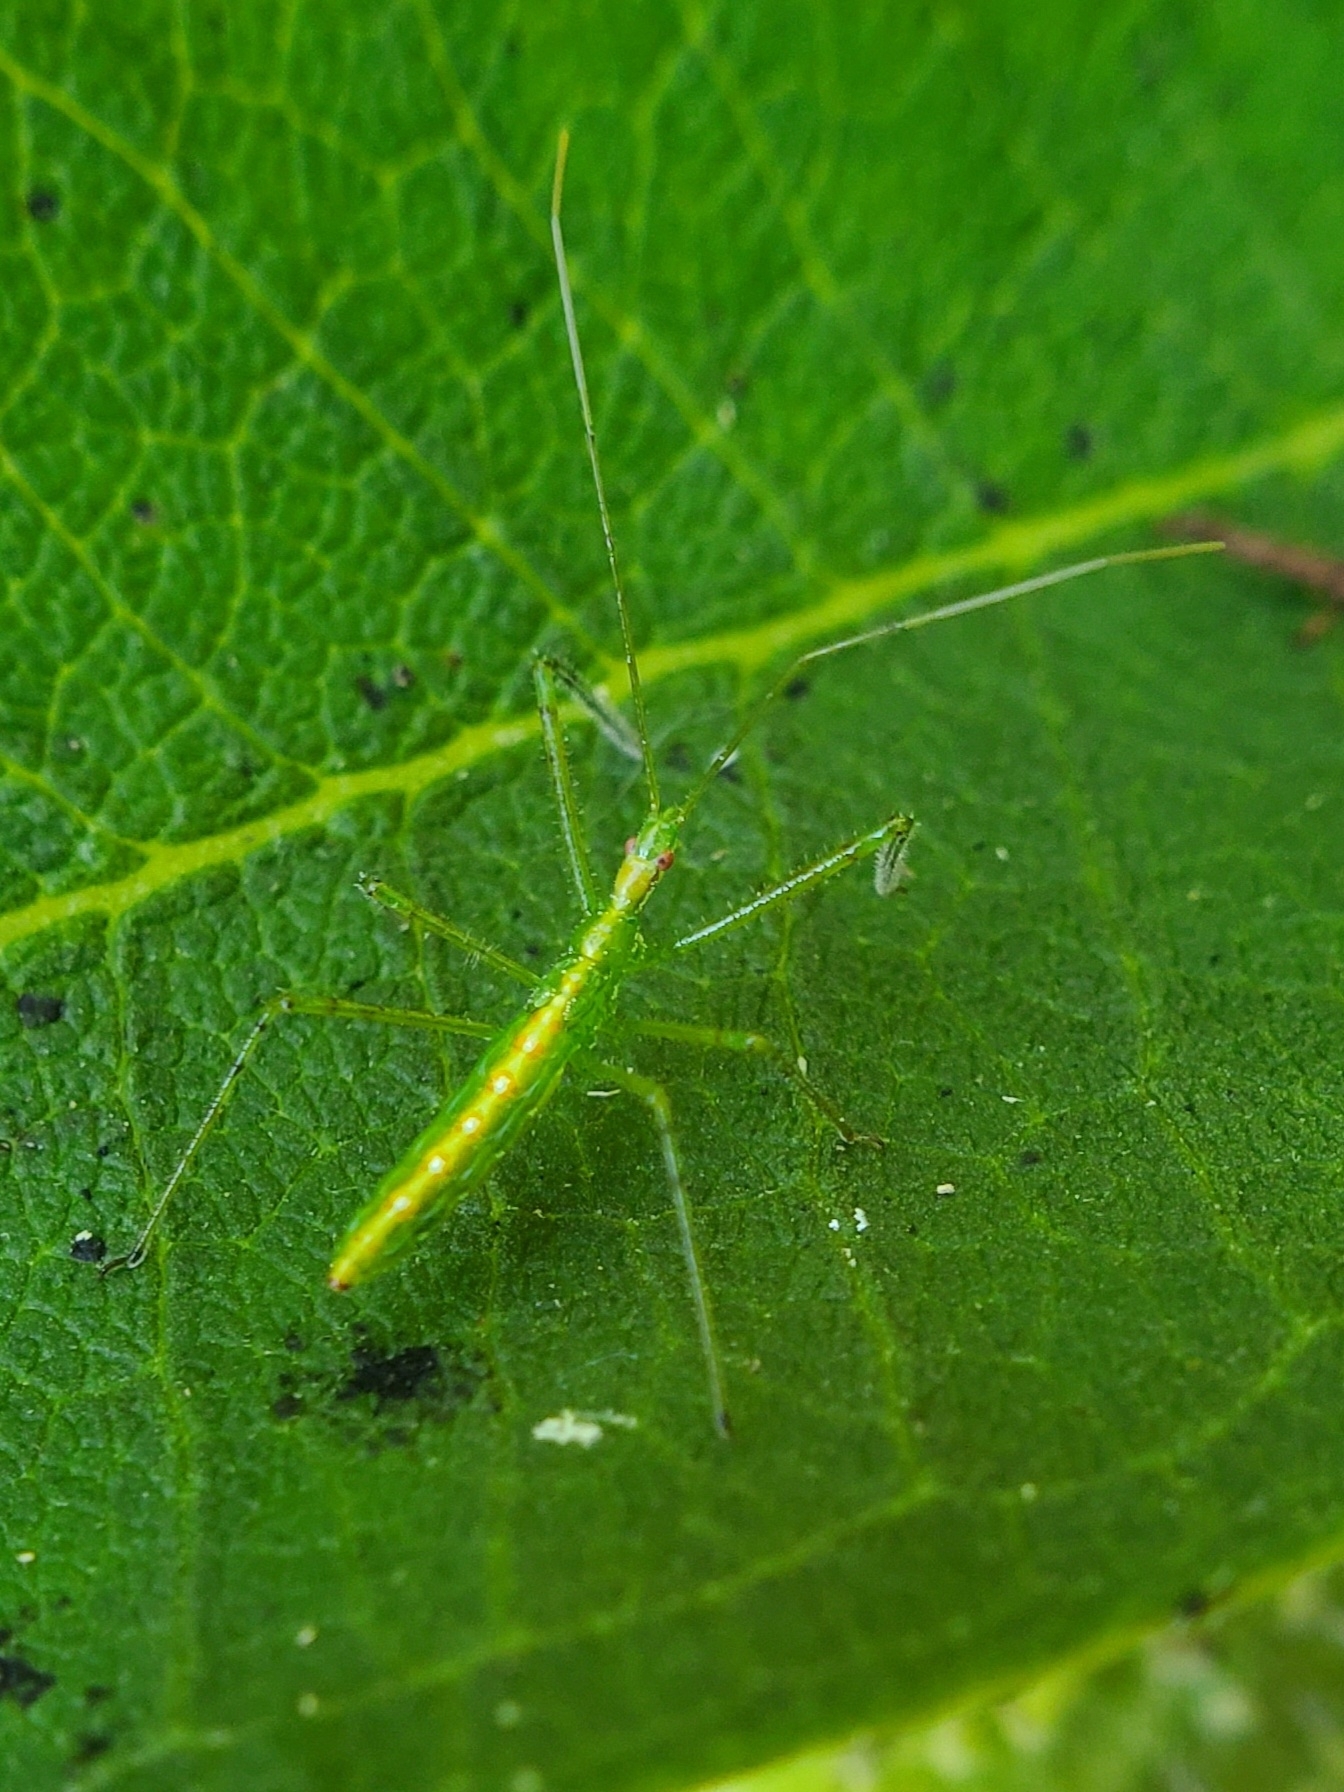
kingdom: Animalia
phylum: Arthropoda
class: Insecta
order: Hemiptera
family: Reduviidae
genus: Zelus
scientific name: Zelus luridus
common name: Pale green assassin bug
